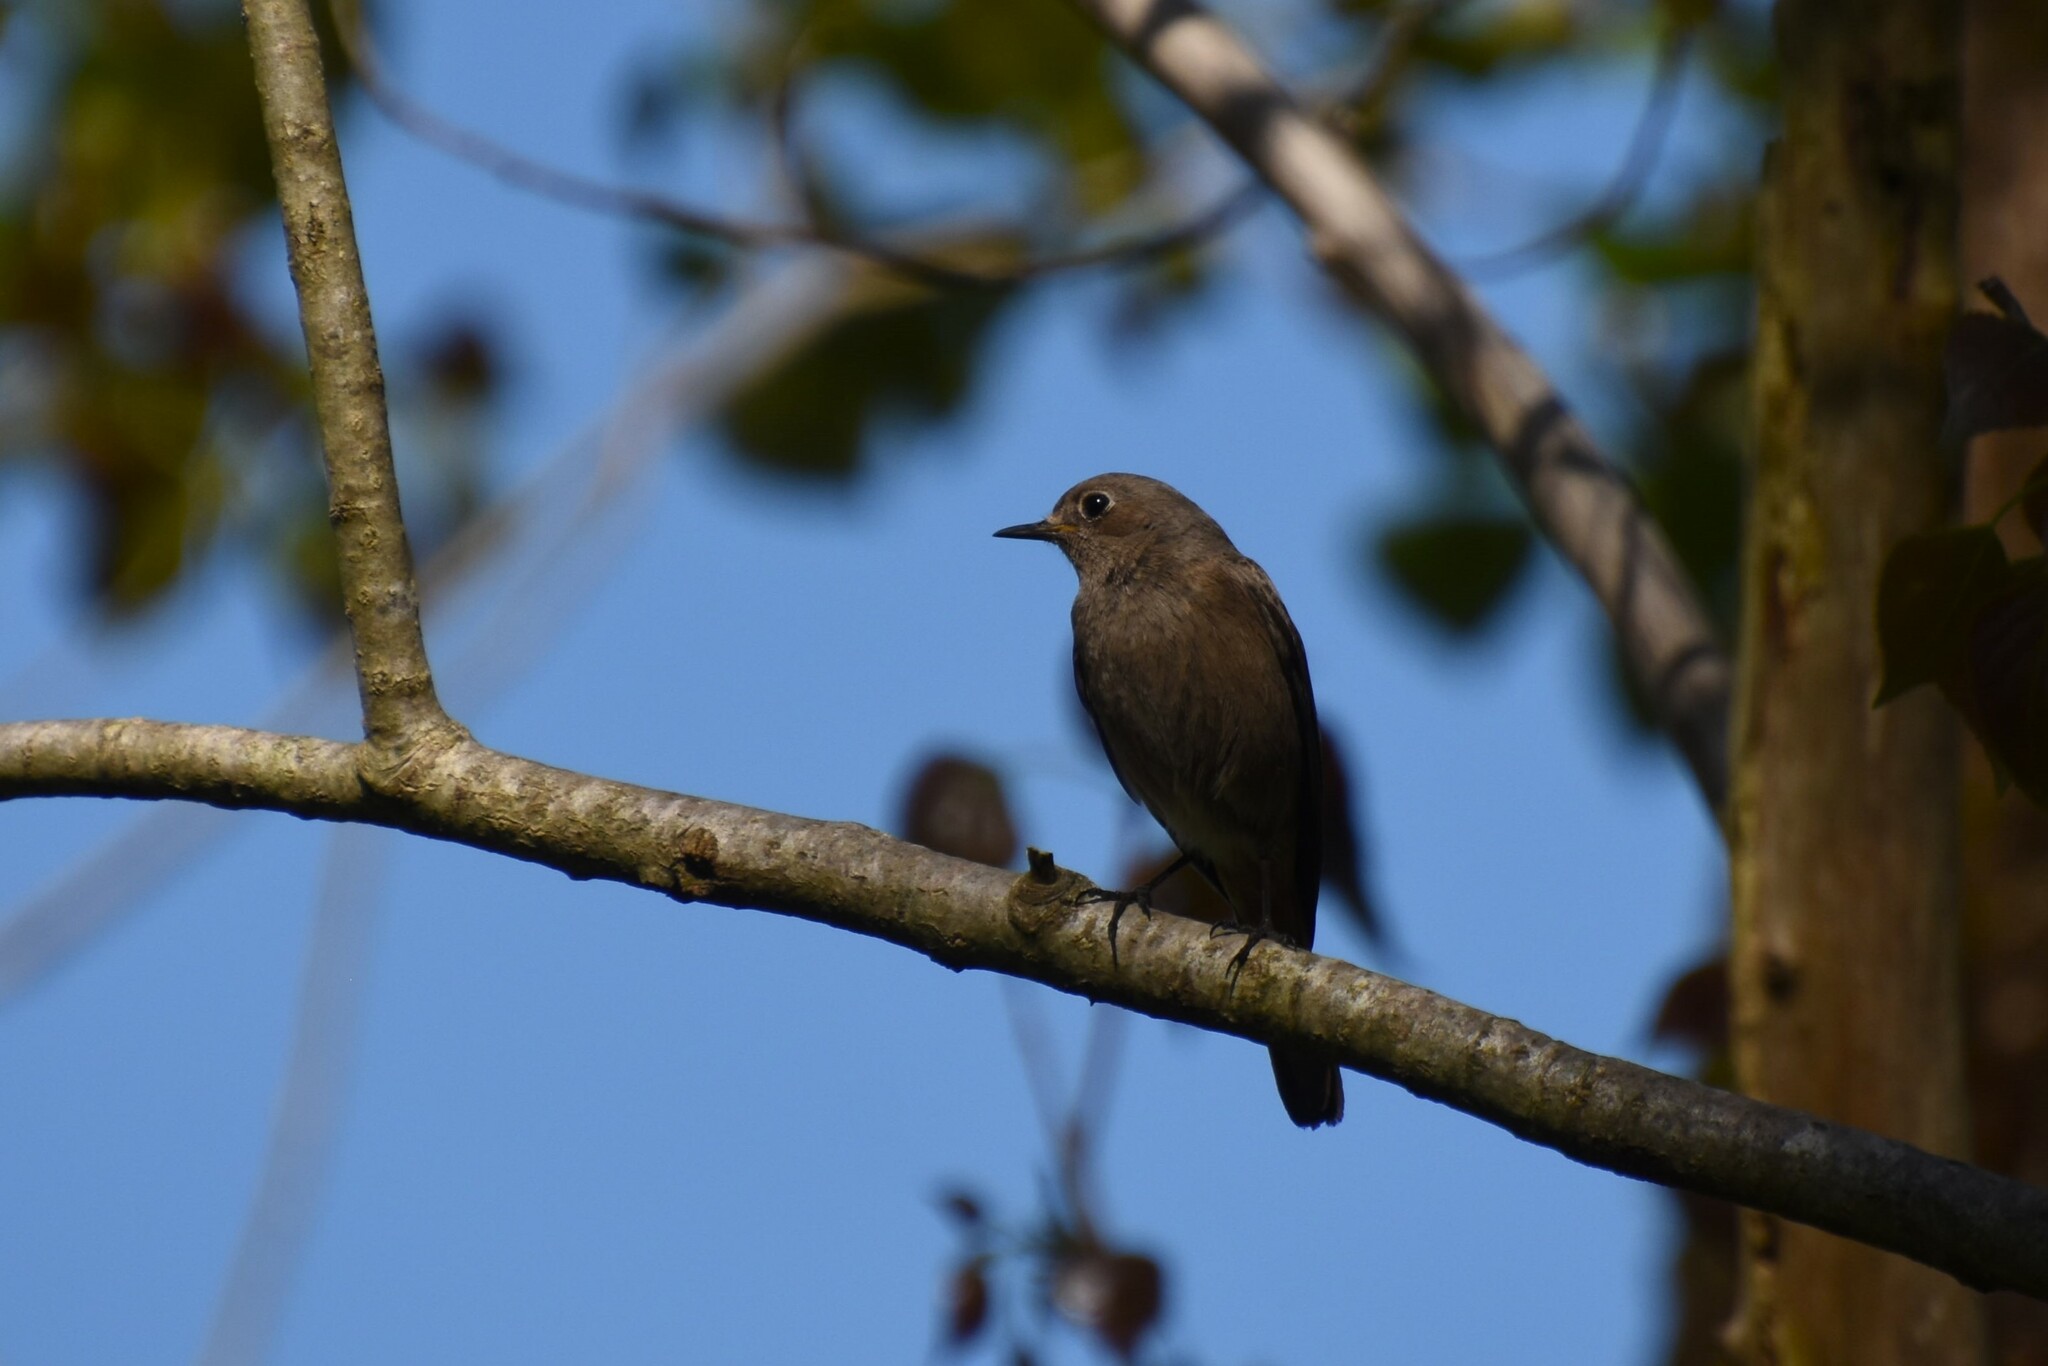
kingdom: Animalia
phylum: Chordata
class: Aves
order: Passeriformes
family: Muscicapidae
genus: Phoenicurus
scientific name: Phoenicurus ochruros
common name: Black redstart
